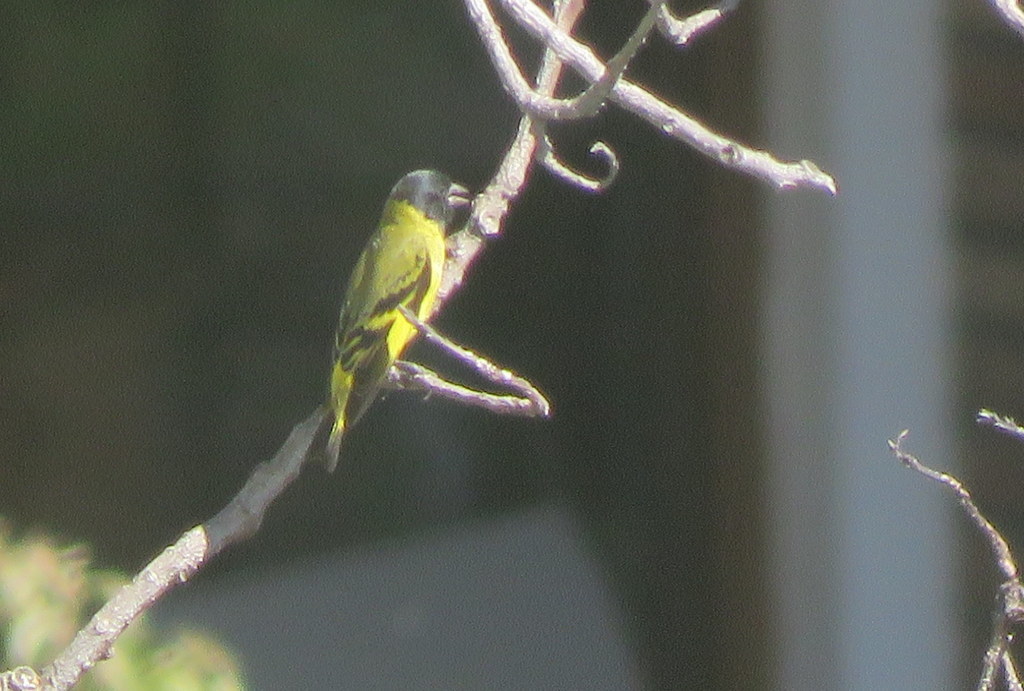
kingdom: Animalia
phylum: Chordata
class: Aves
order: Passeriformes
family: Fringillidae
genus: Spinus
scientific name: Spinus magellanicus
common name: Hooded siskin
